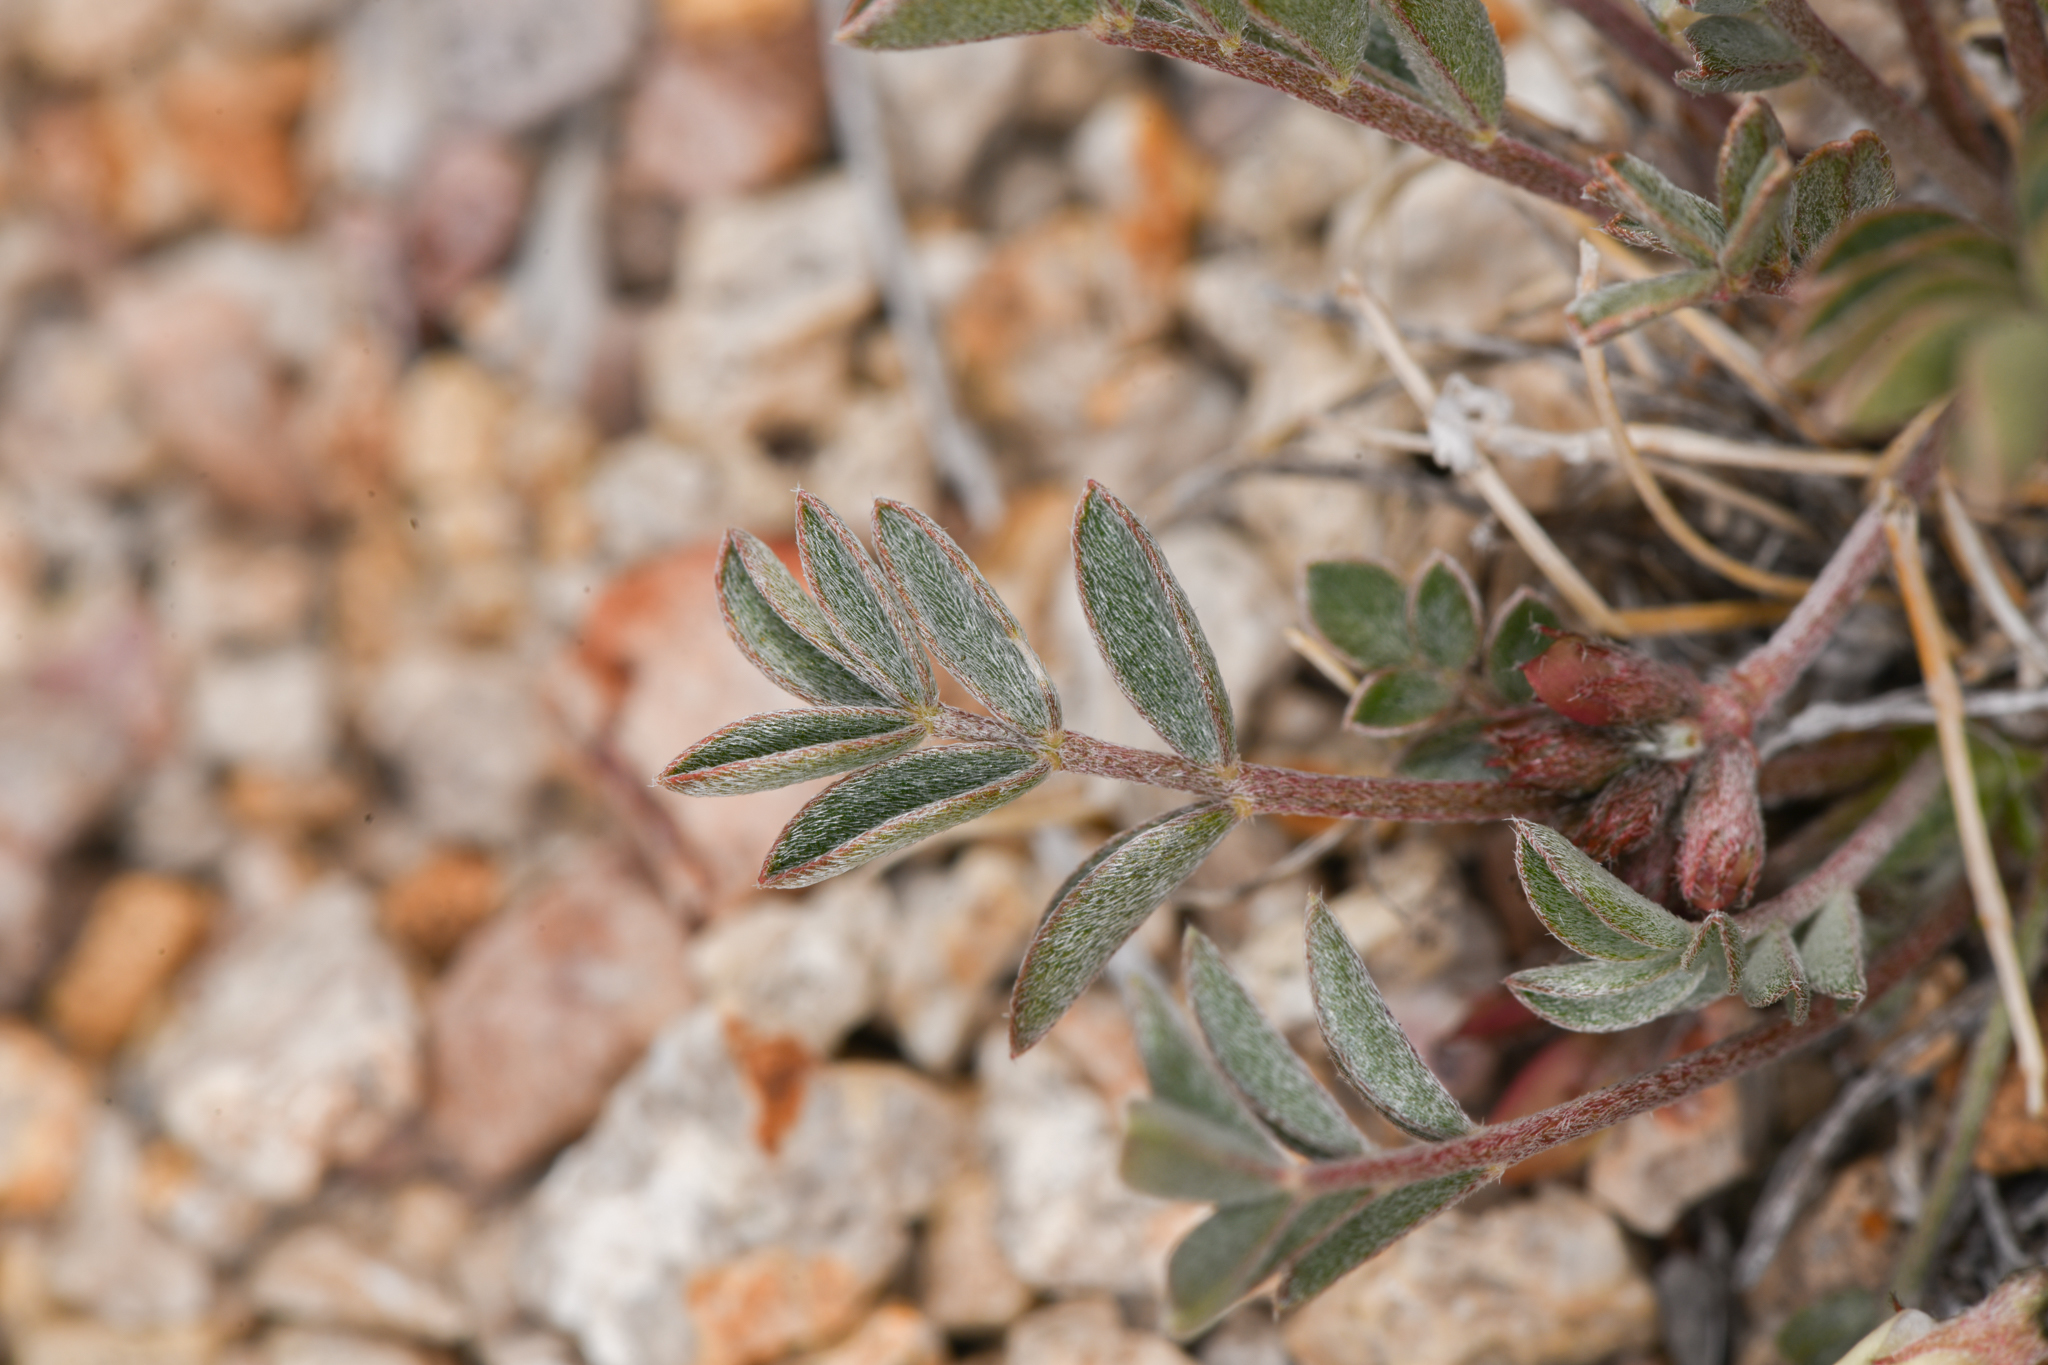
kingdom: Plantae
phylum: Tracheophyta
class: Magnoliopsida
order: Fabales
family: Fabaceae
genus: Astragalus
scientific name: Astragalus platytropis
